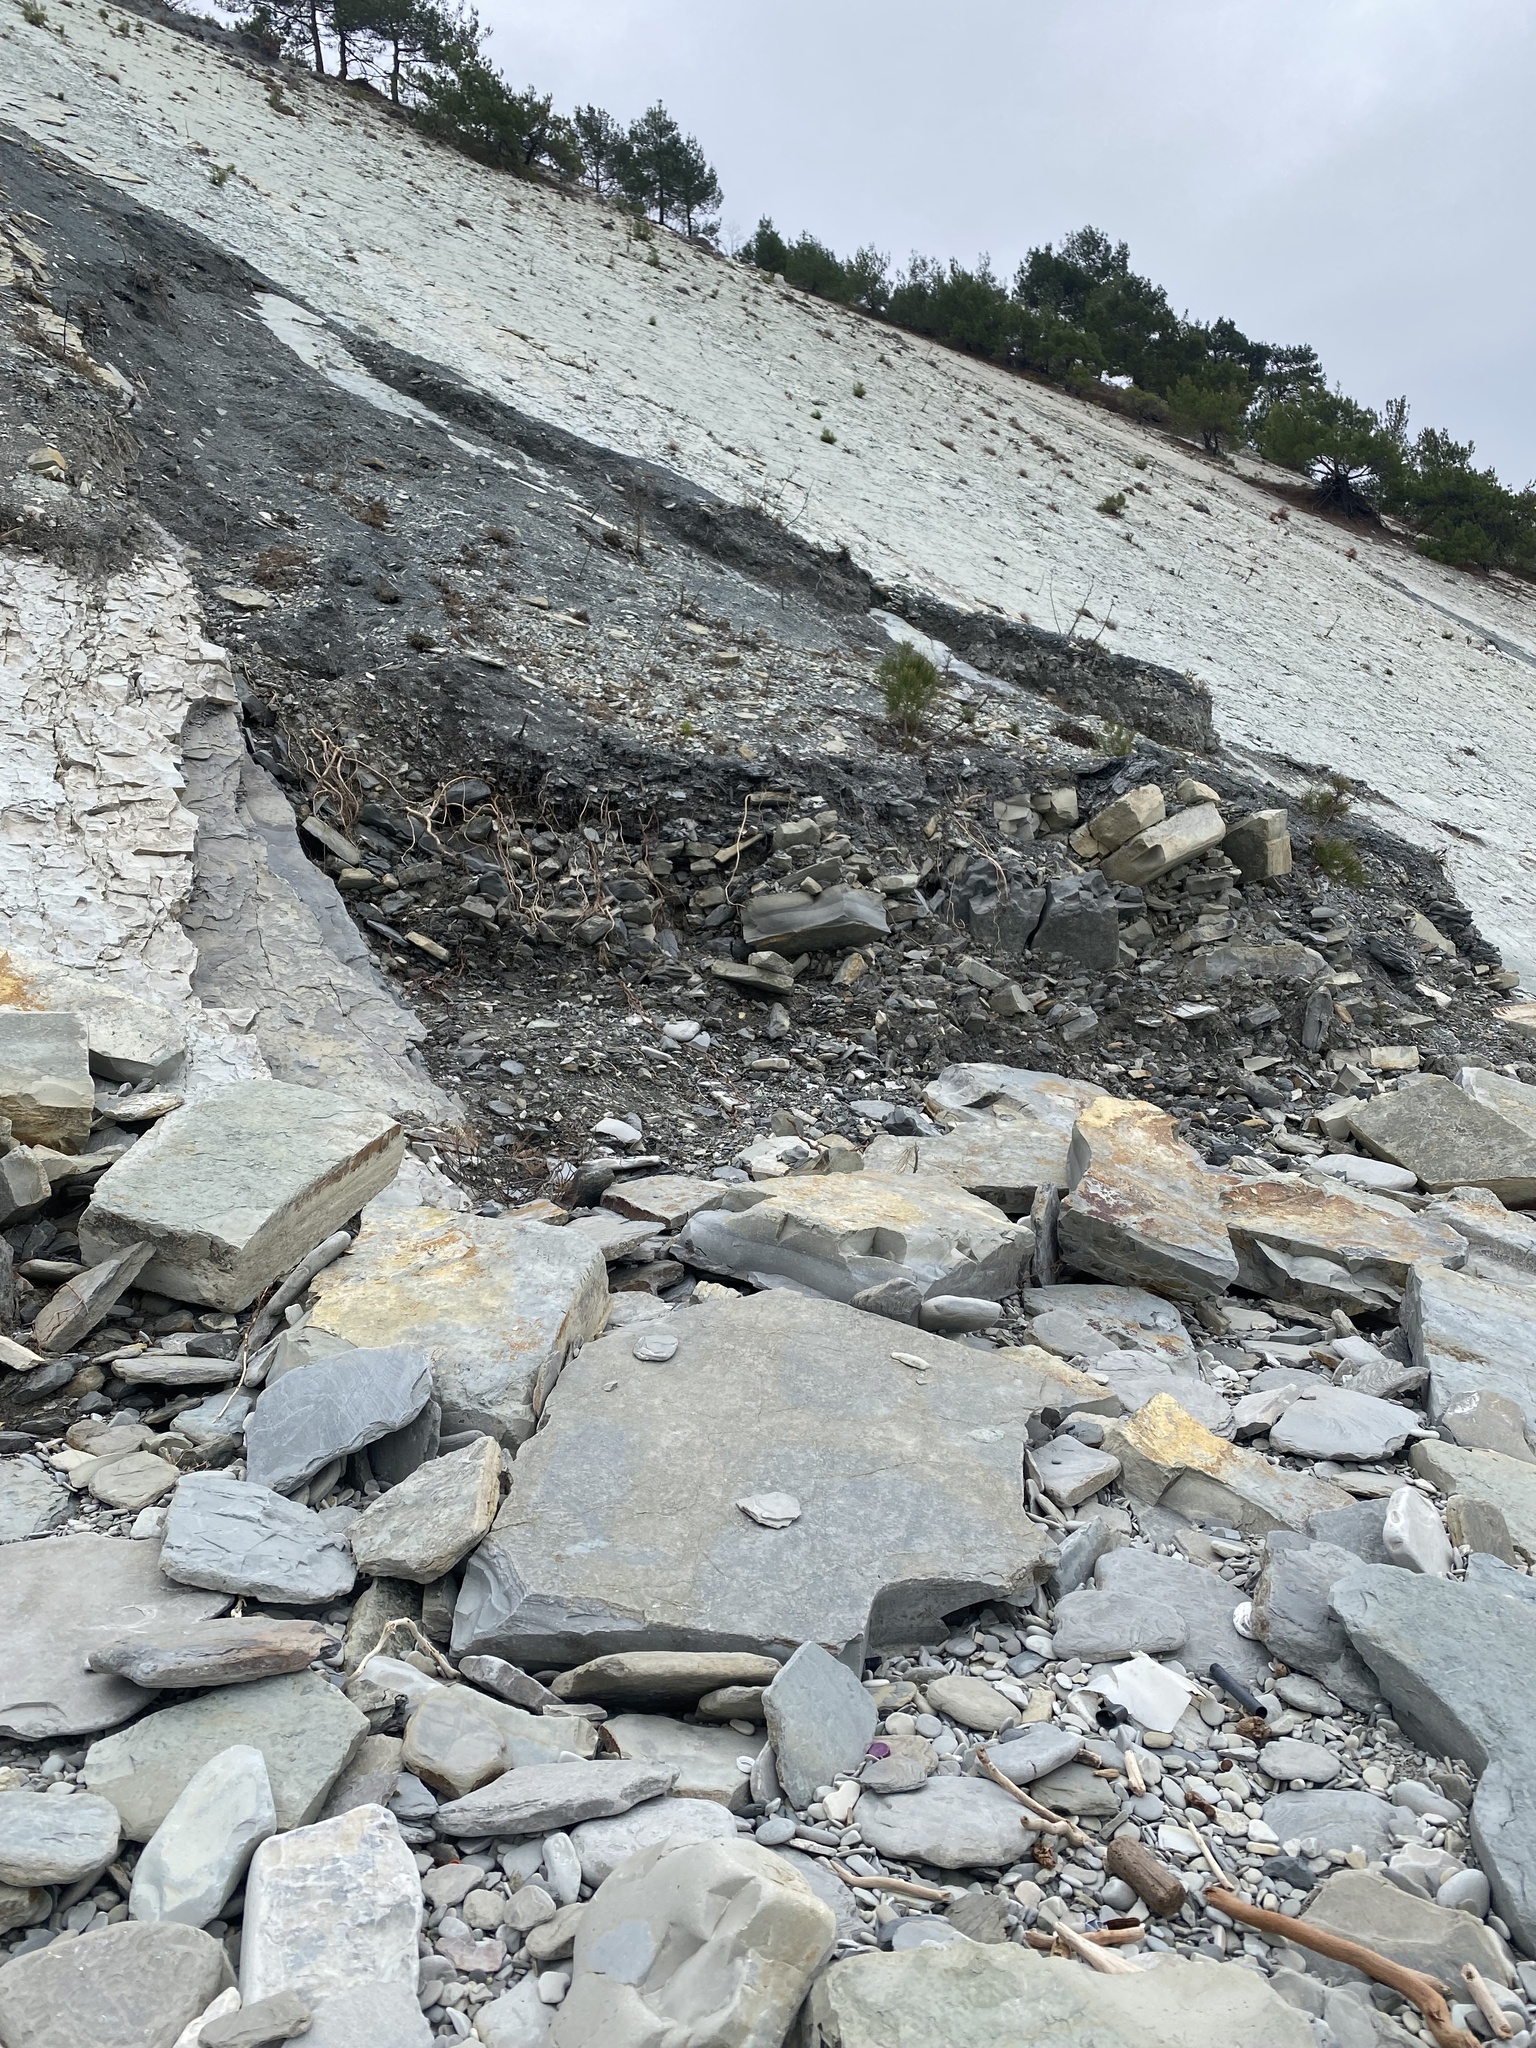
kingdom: Plantae
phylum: Tracheophyta
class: Pinopsida
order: Pinales
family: Pinaceae
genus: Pinus
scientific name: Pinus brutia
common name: Turkish pine
